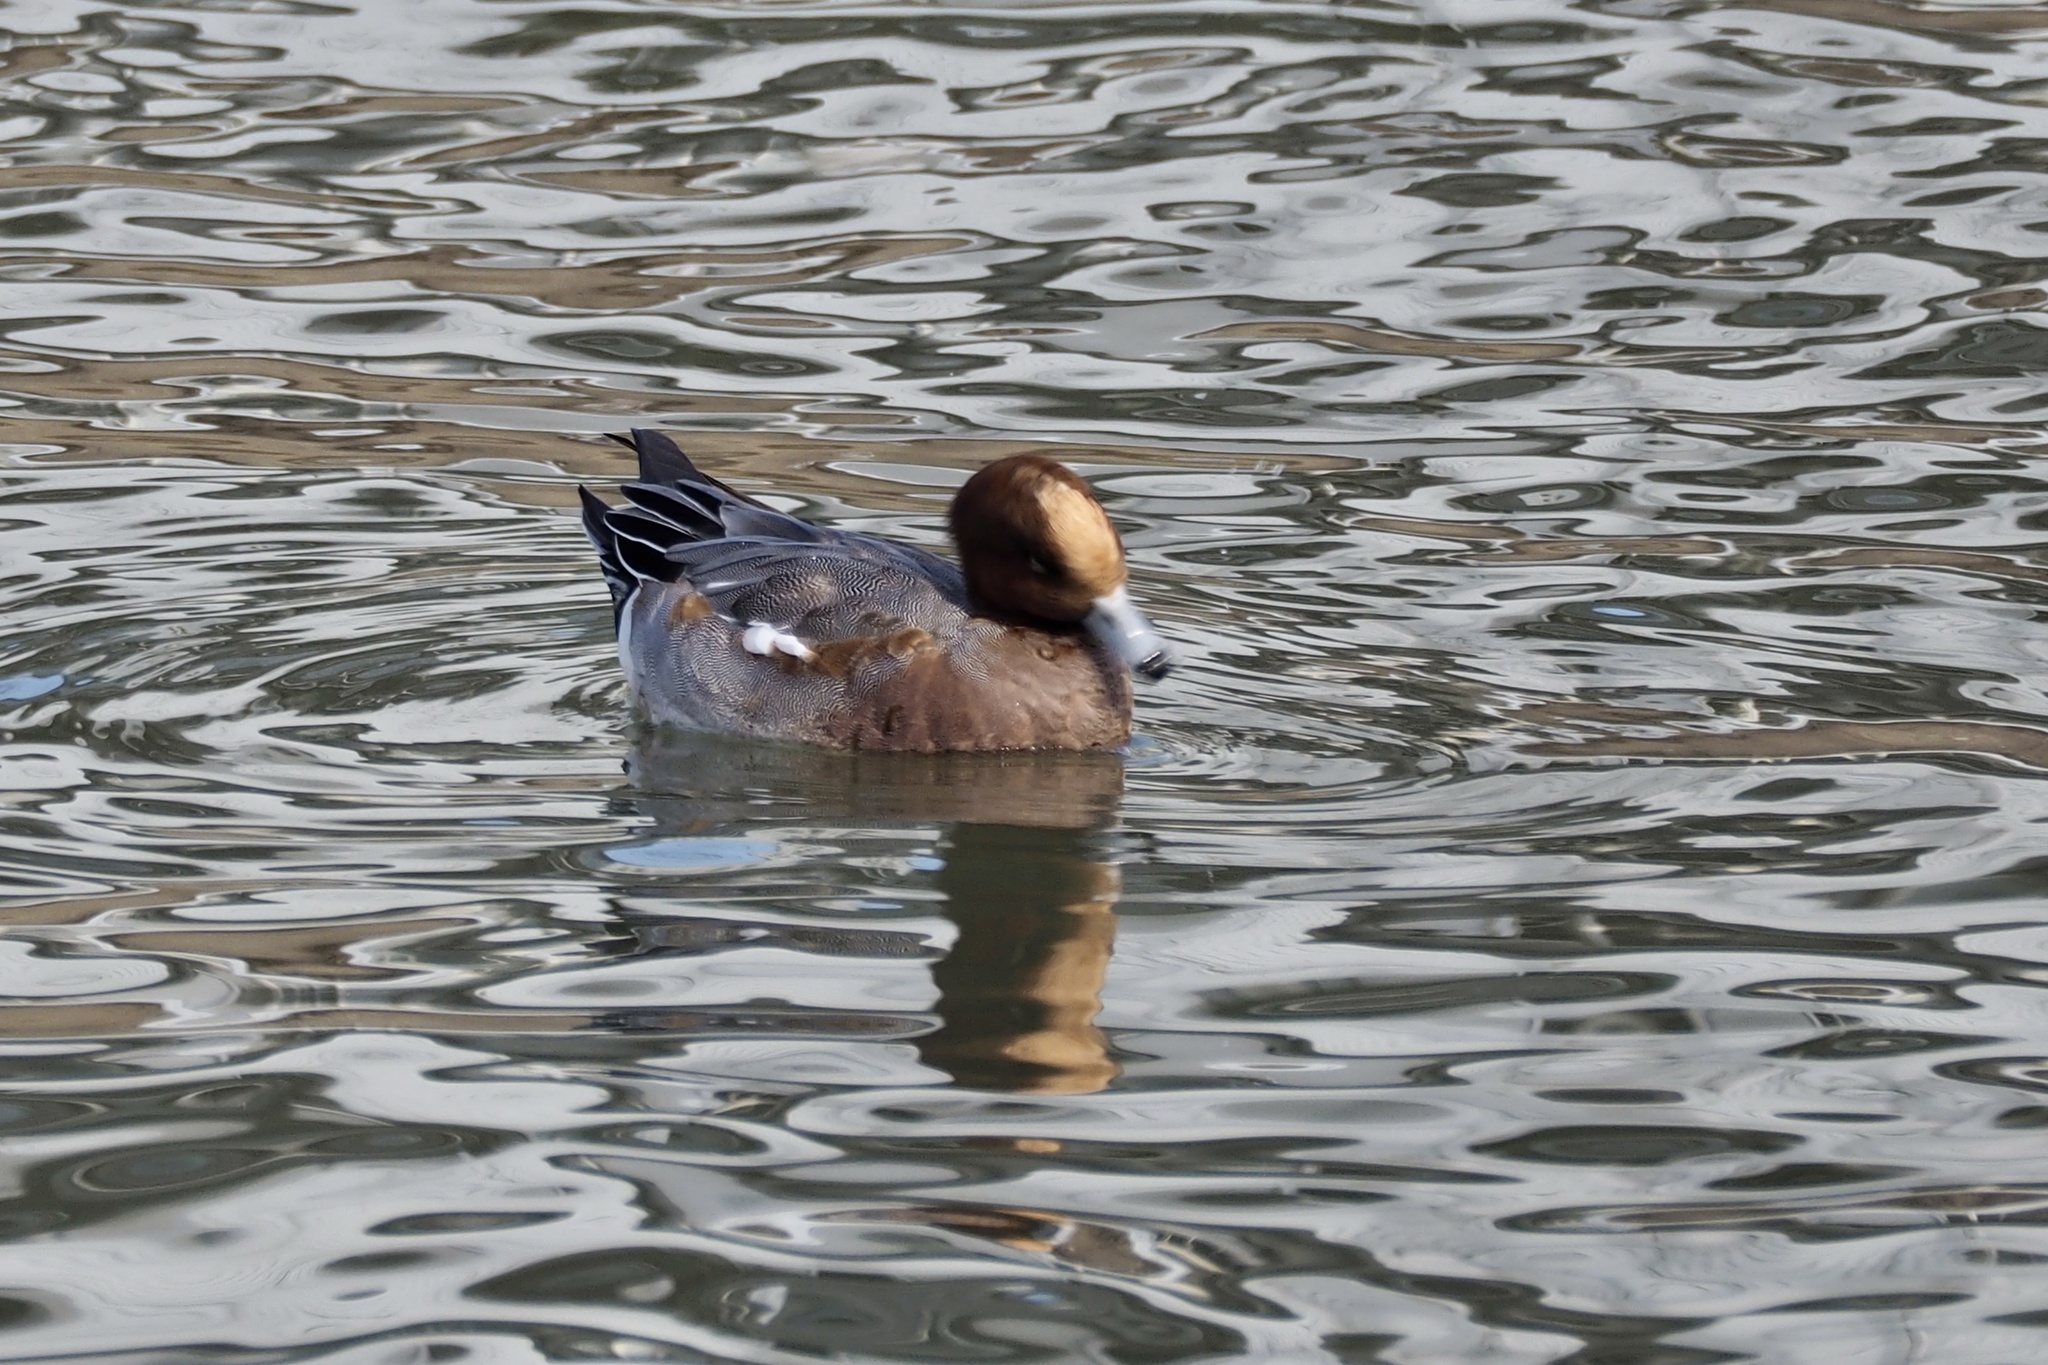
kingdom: Animalia
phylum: Chordata
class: Aves
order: Anseriformes
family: Anatidae
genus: Mareca
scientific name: Mareca penelope
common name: Eurasian wigeon
